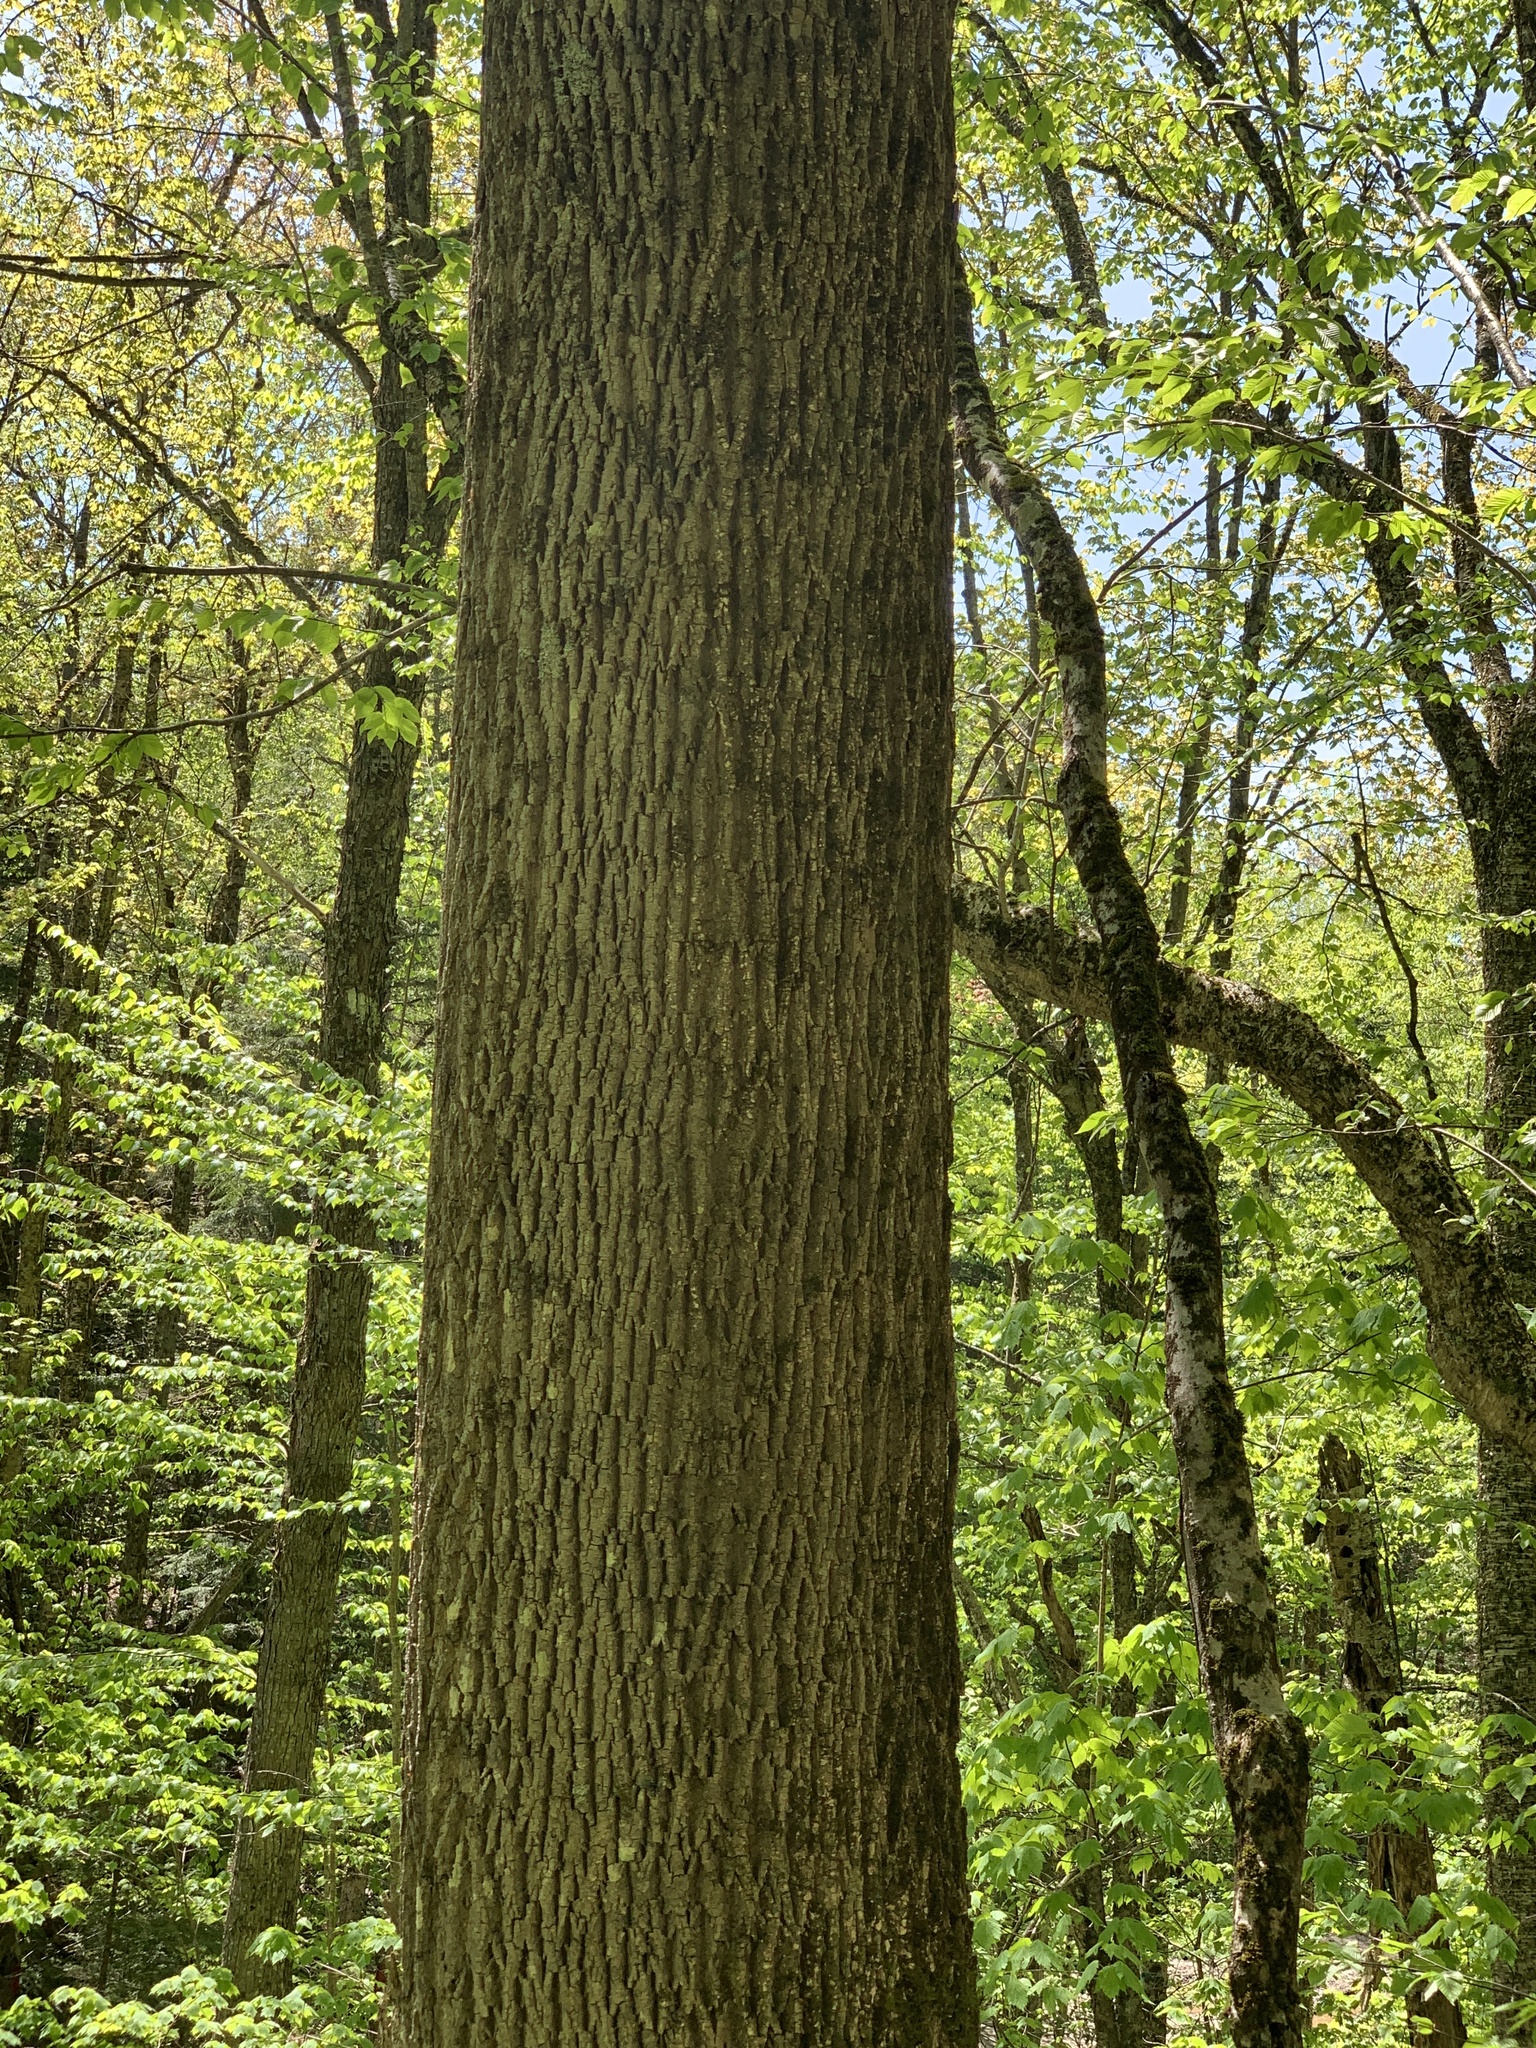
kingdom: Plantae
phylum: Tracheophyta
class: Magnoliopsida
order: Lamiales
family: Oleaceae
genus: Fraxinus
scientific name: Fraxinus americana
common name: White ash
